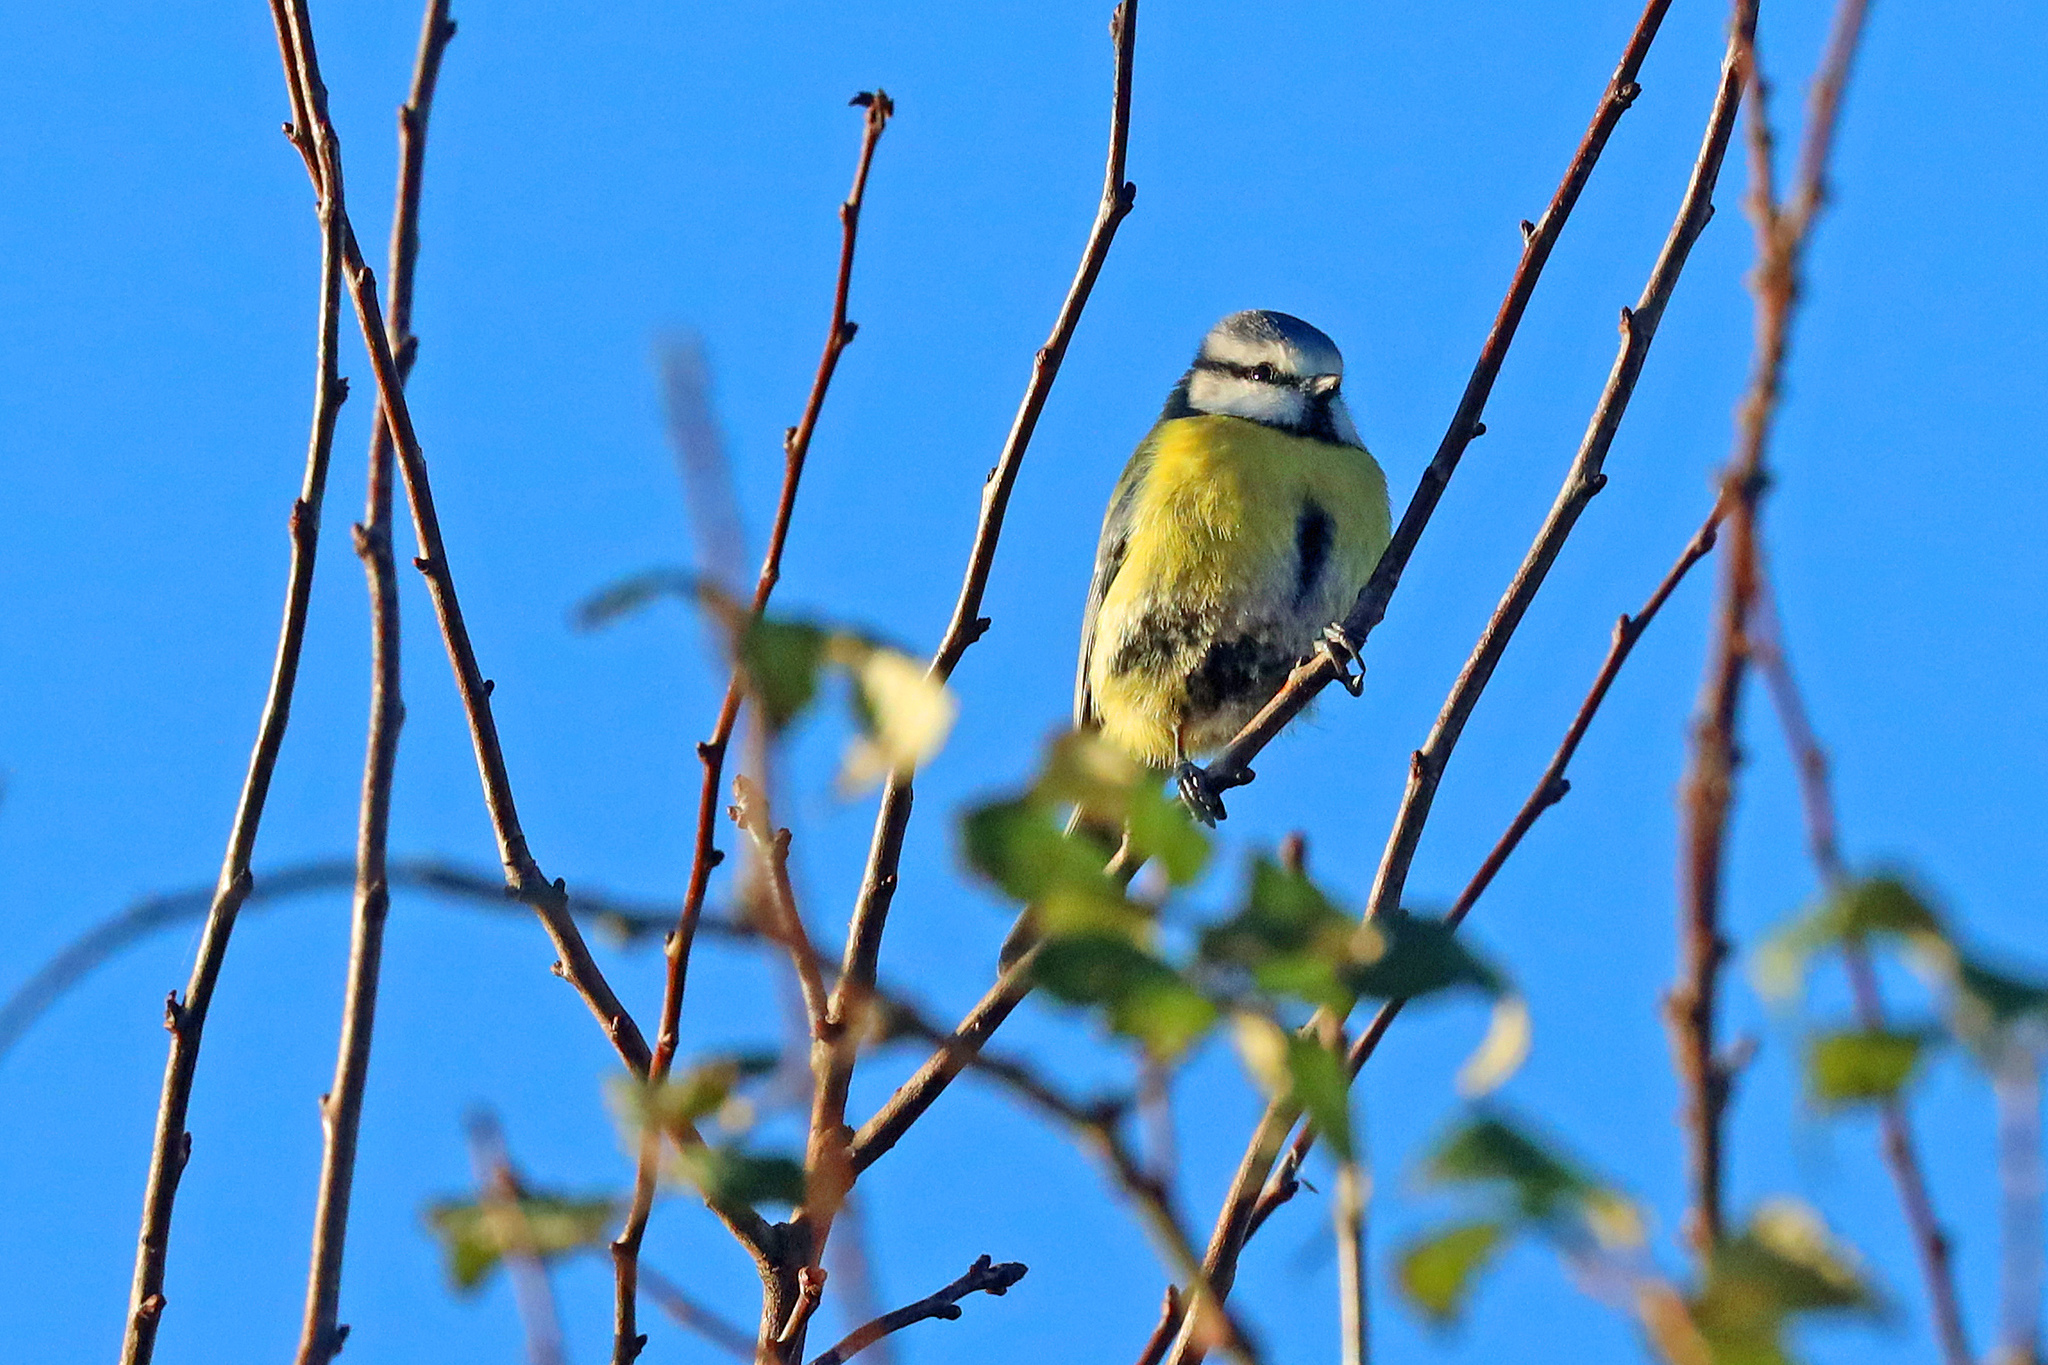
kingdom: Animalia
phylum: Chordata
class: Aves
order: Passeriformes
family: Paridae
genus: Cyanistes
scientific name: Cyanistes caeruleus
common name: Eurasian blue tit
